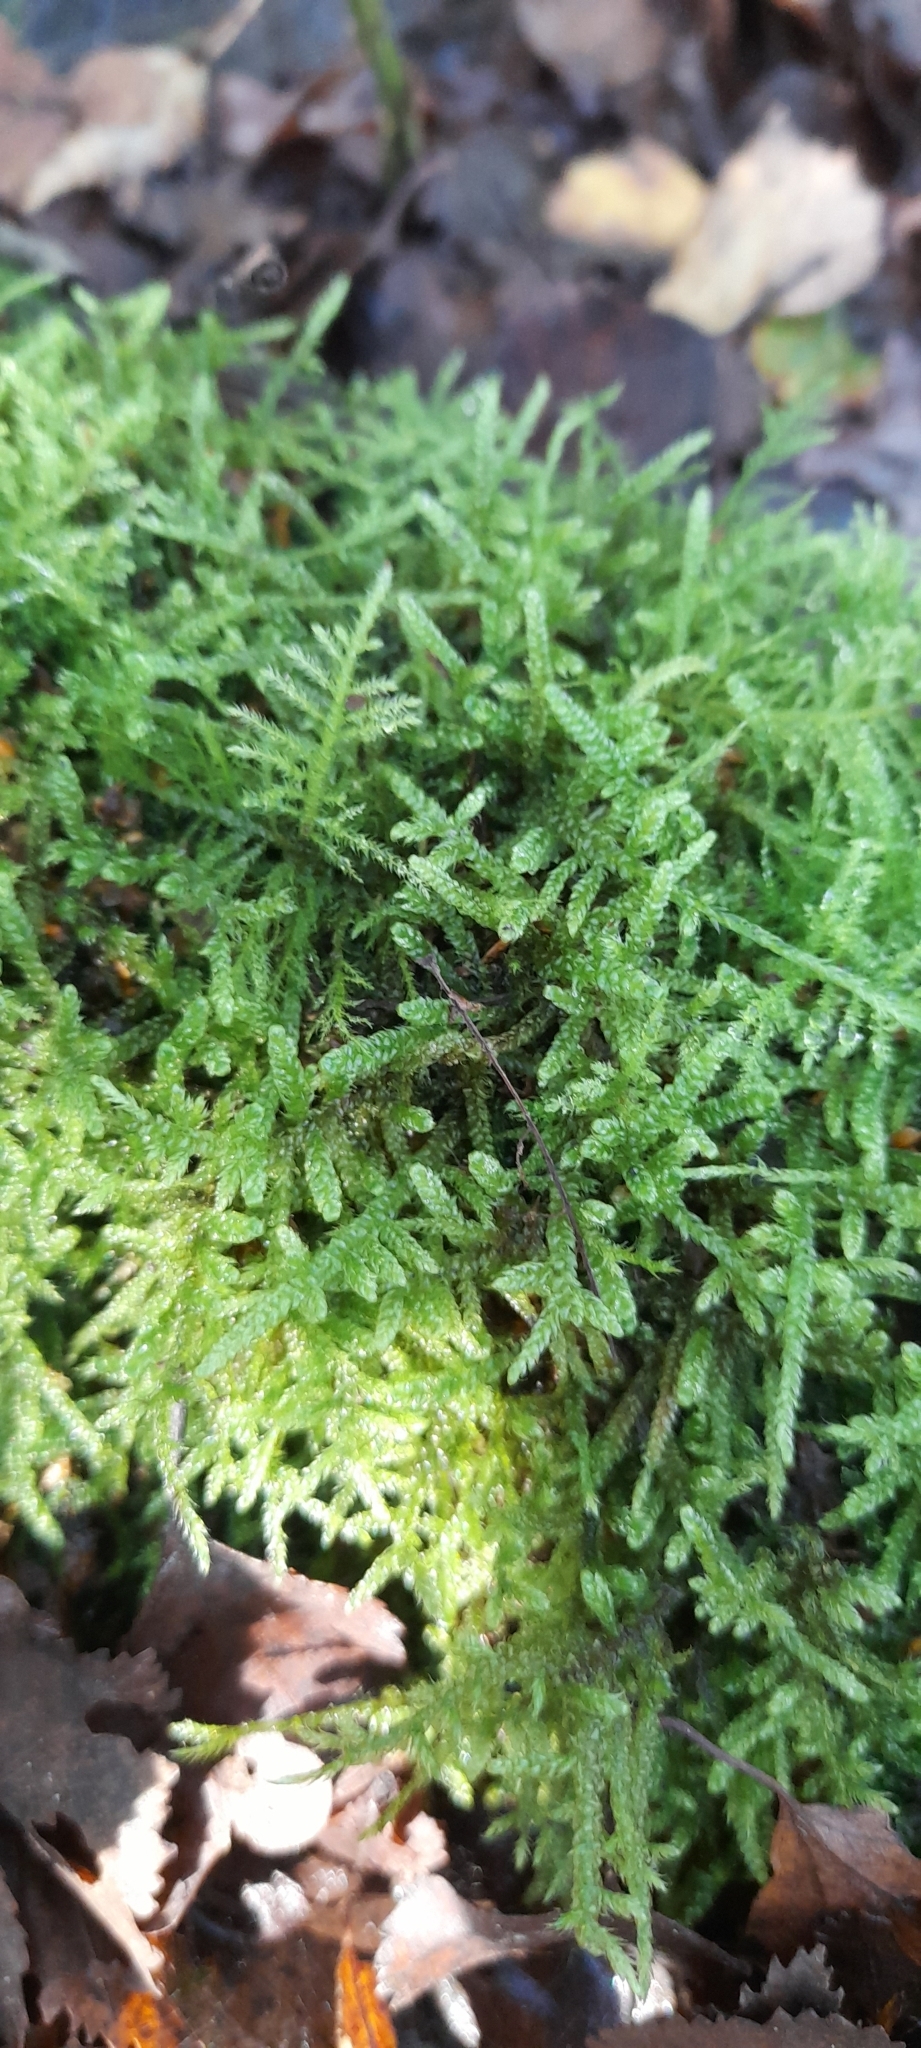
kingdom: Plantae
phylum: Bryophyta
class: Bryopsida
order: Hypnales
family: Hypnaceae
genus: Hypnum
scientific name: Hypnum cupressiforme
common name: Cypress-leaved plait-moss
